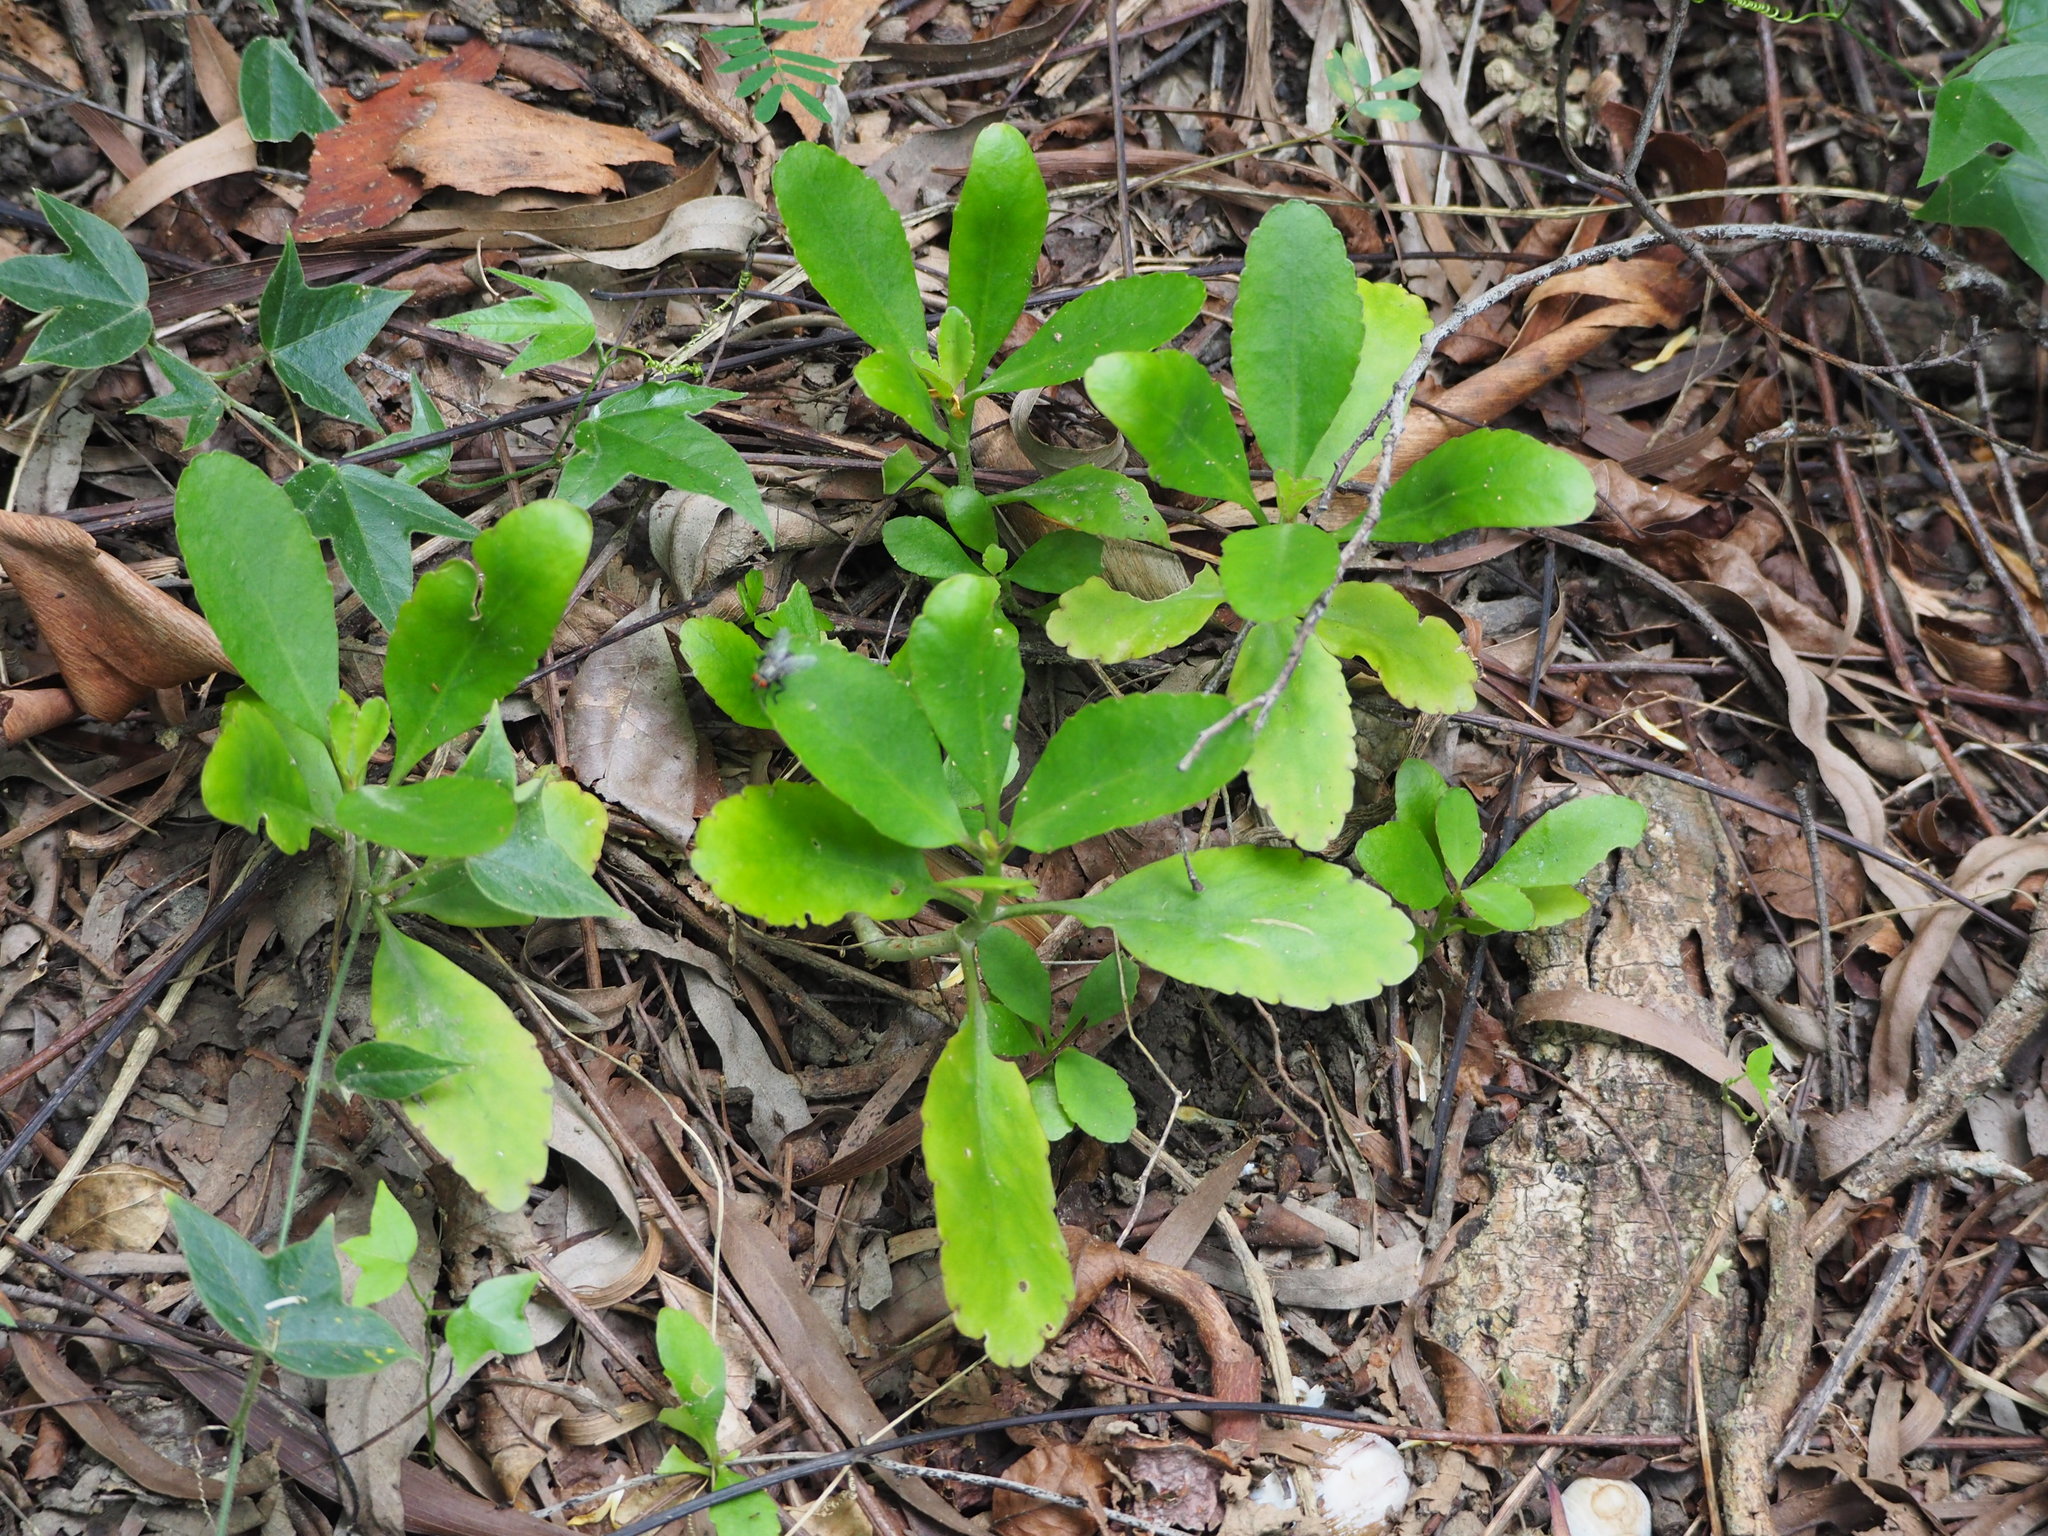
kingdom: Plantae
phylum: Tracheophyta
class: Magnoliopsida
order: Saxifragales
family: Crassulaceae
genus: Kalanchoe
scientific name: Kalanchoe pinnata
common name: Cathedral bells
